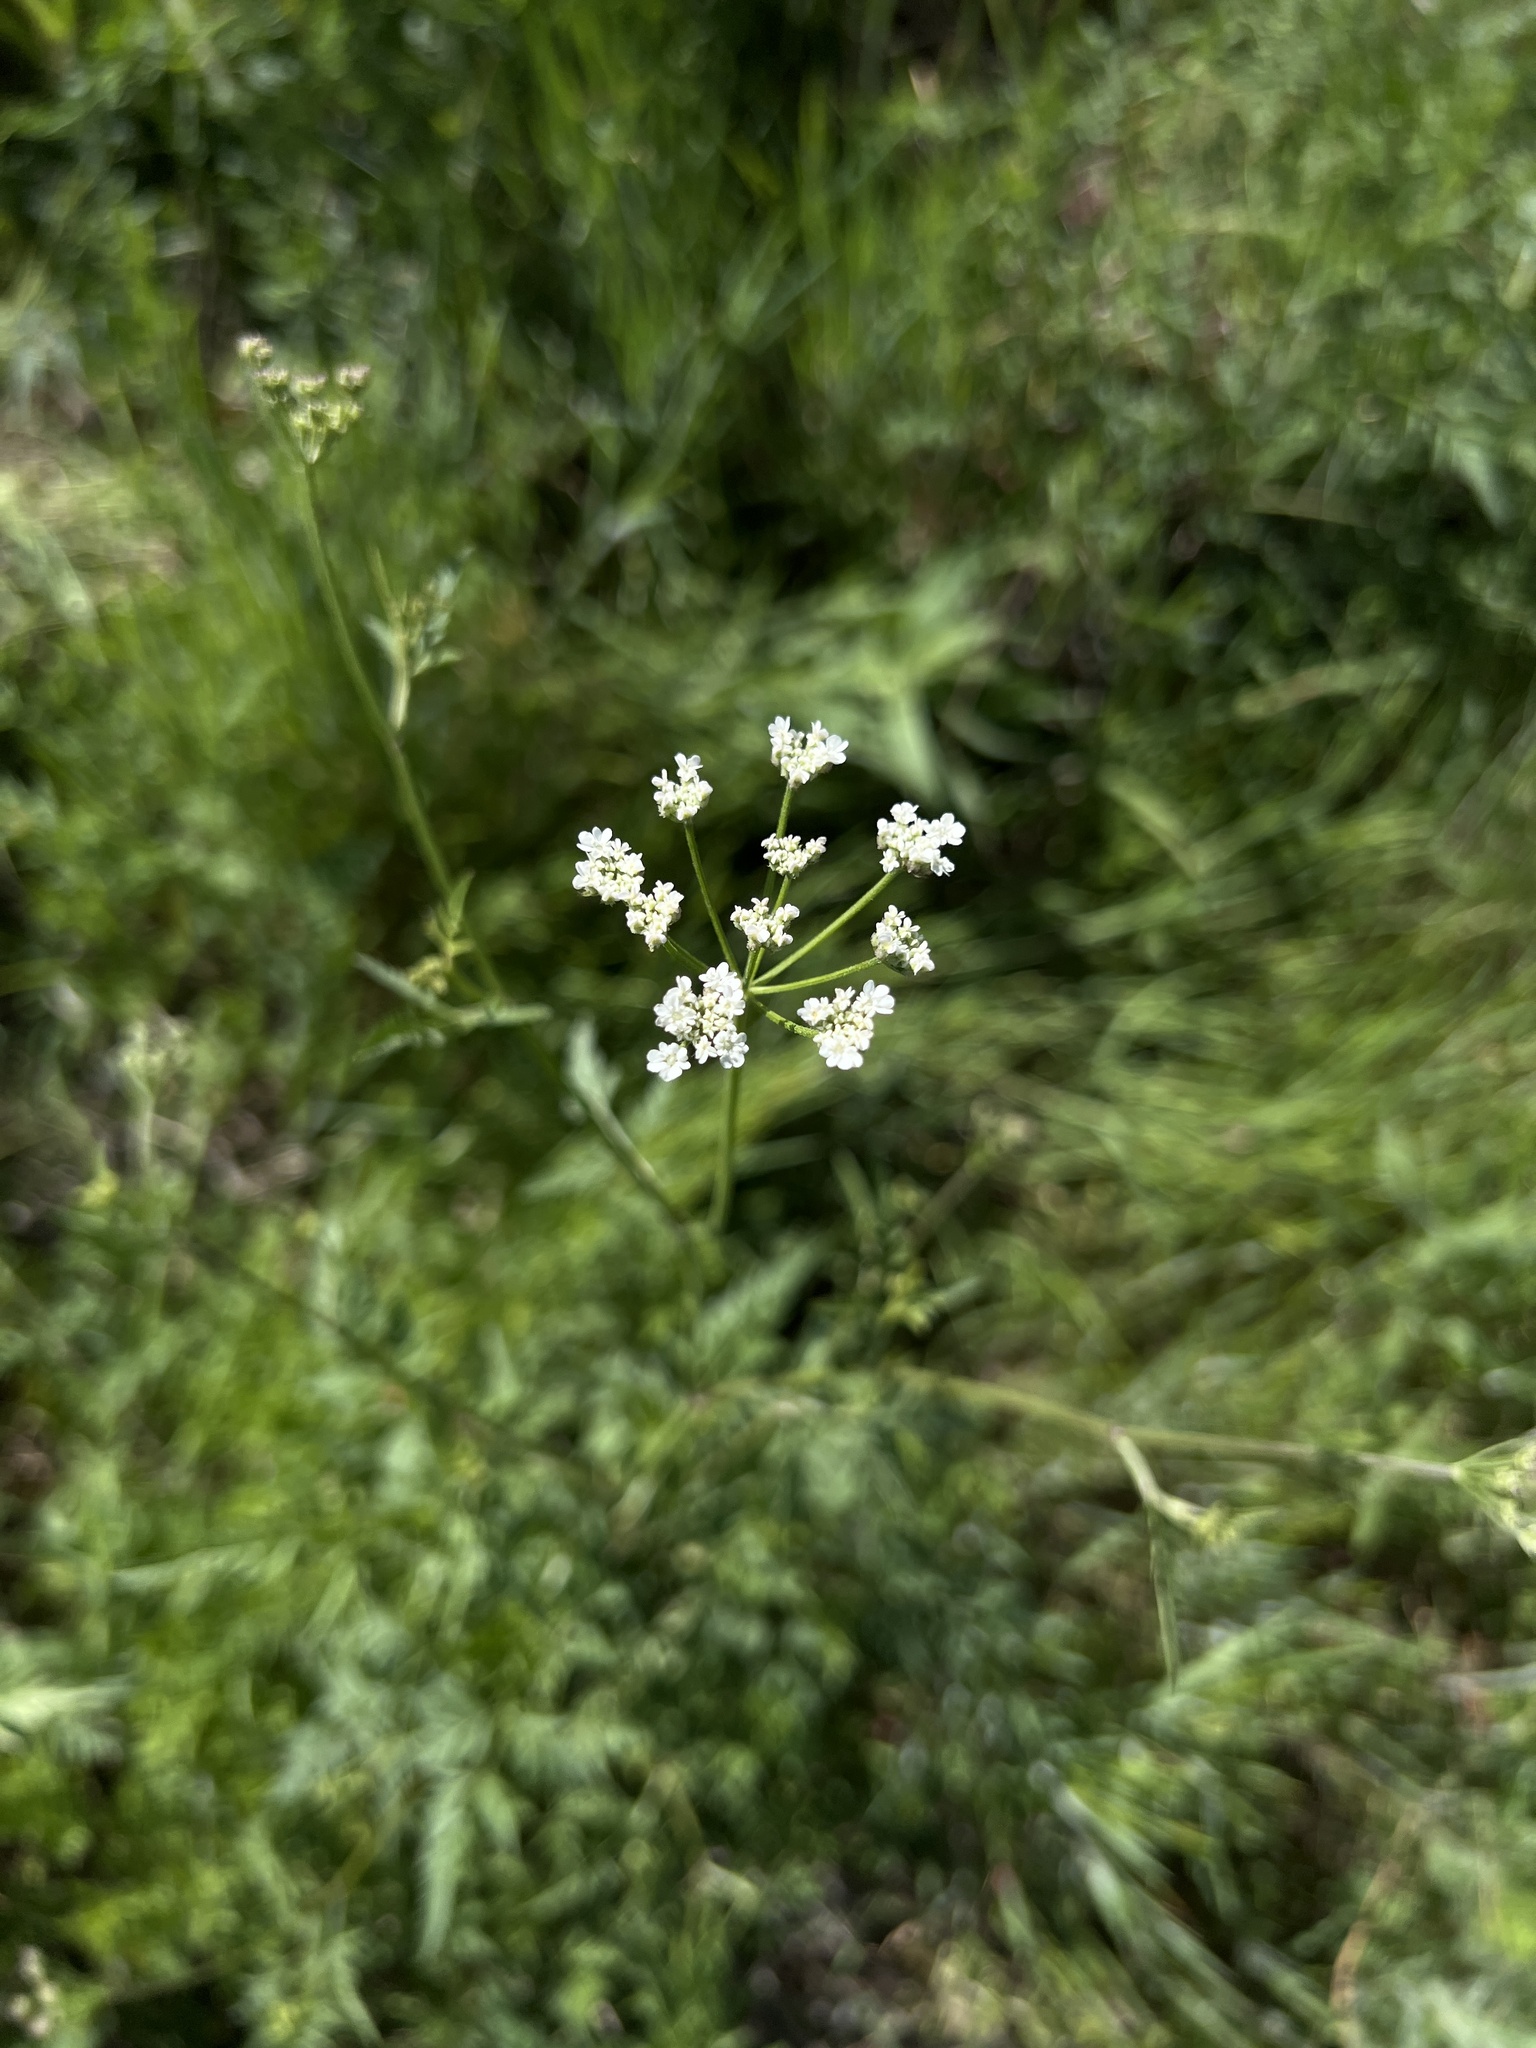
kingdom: Plantae
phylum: Tracheophyta
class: Magnoliopsida
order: Apiales
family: Apiaceae
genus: Torilis
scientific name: Torilis arvensis
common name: Spreading hedge-parsley
